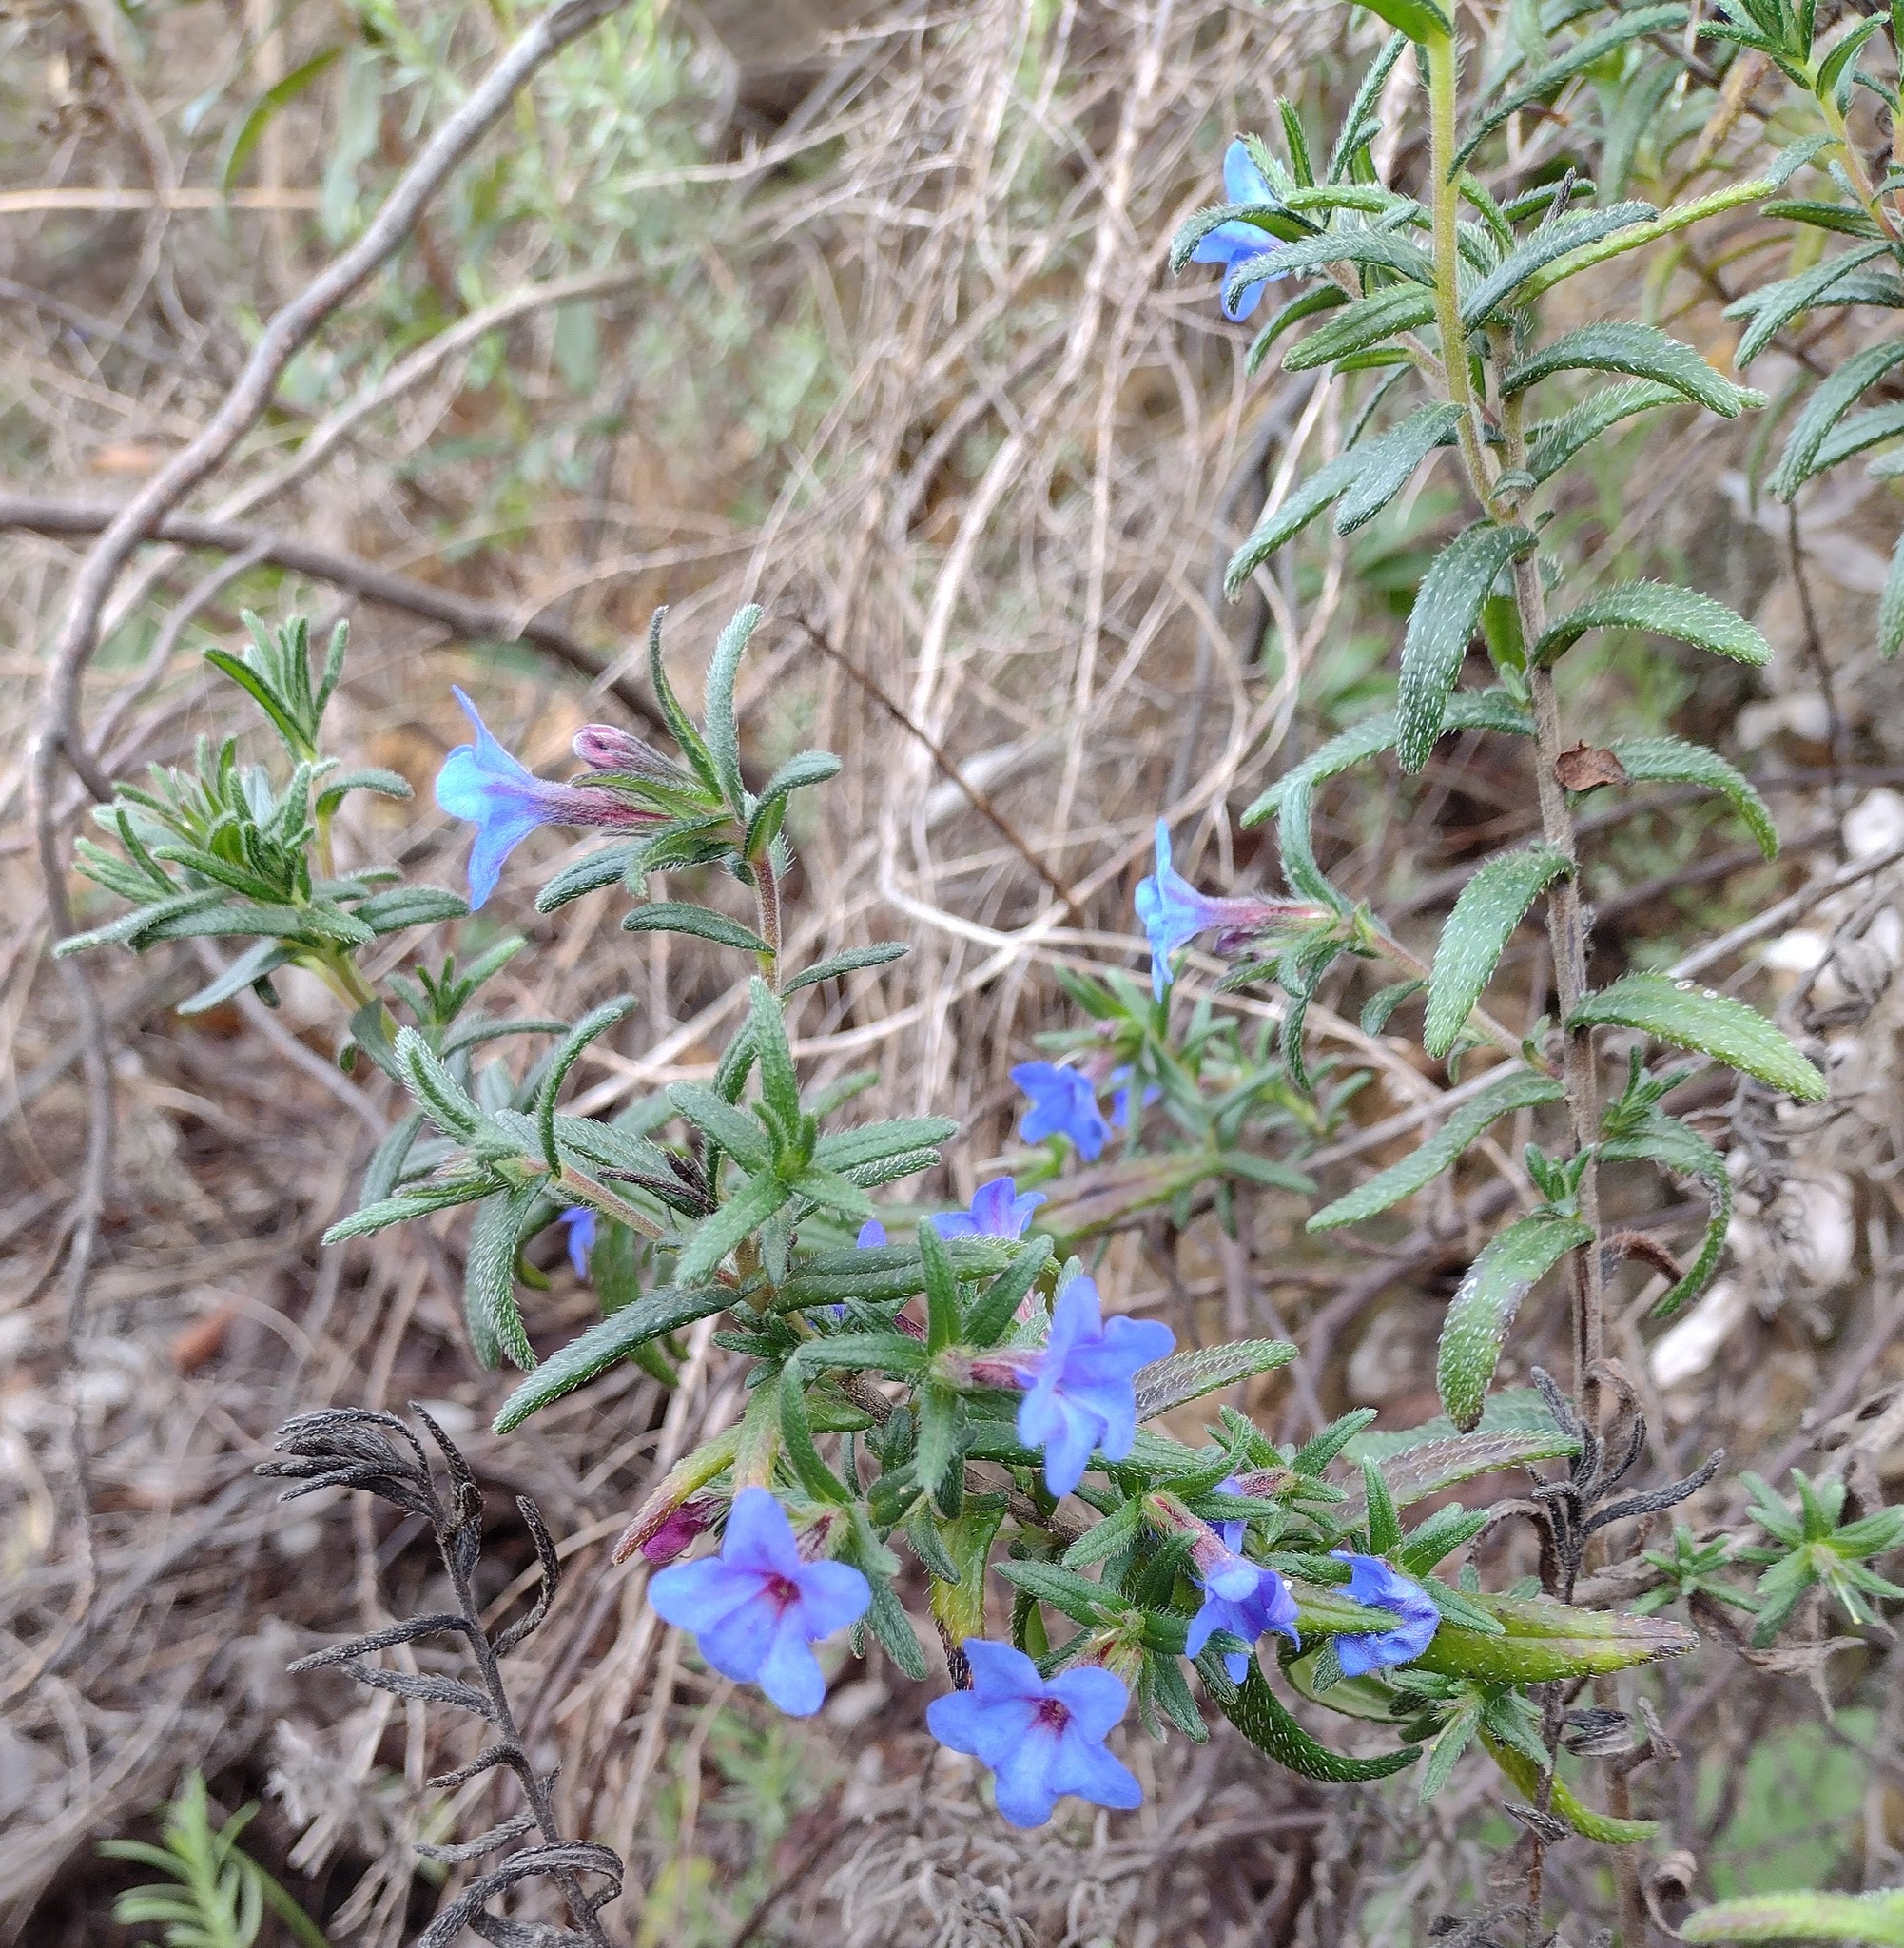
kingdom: Plantae
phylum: Tracheophyta
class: Magnoliopsida
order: Boraginales
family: Boraginaceae
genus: Glandora
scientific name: Glandora prostrata
